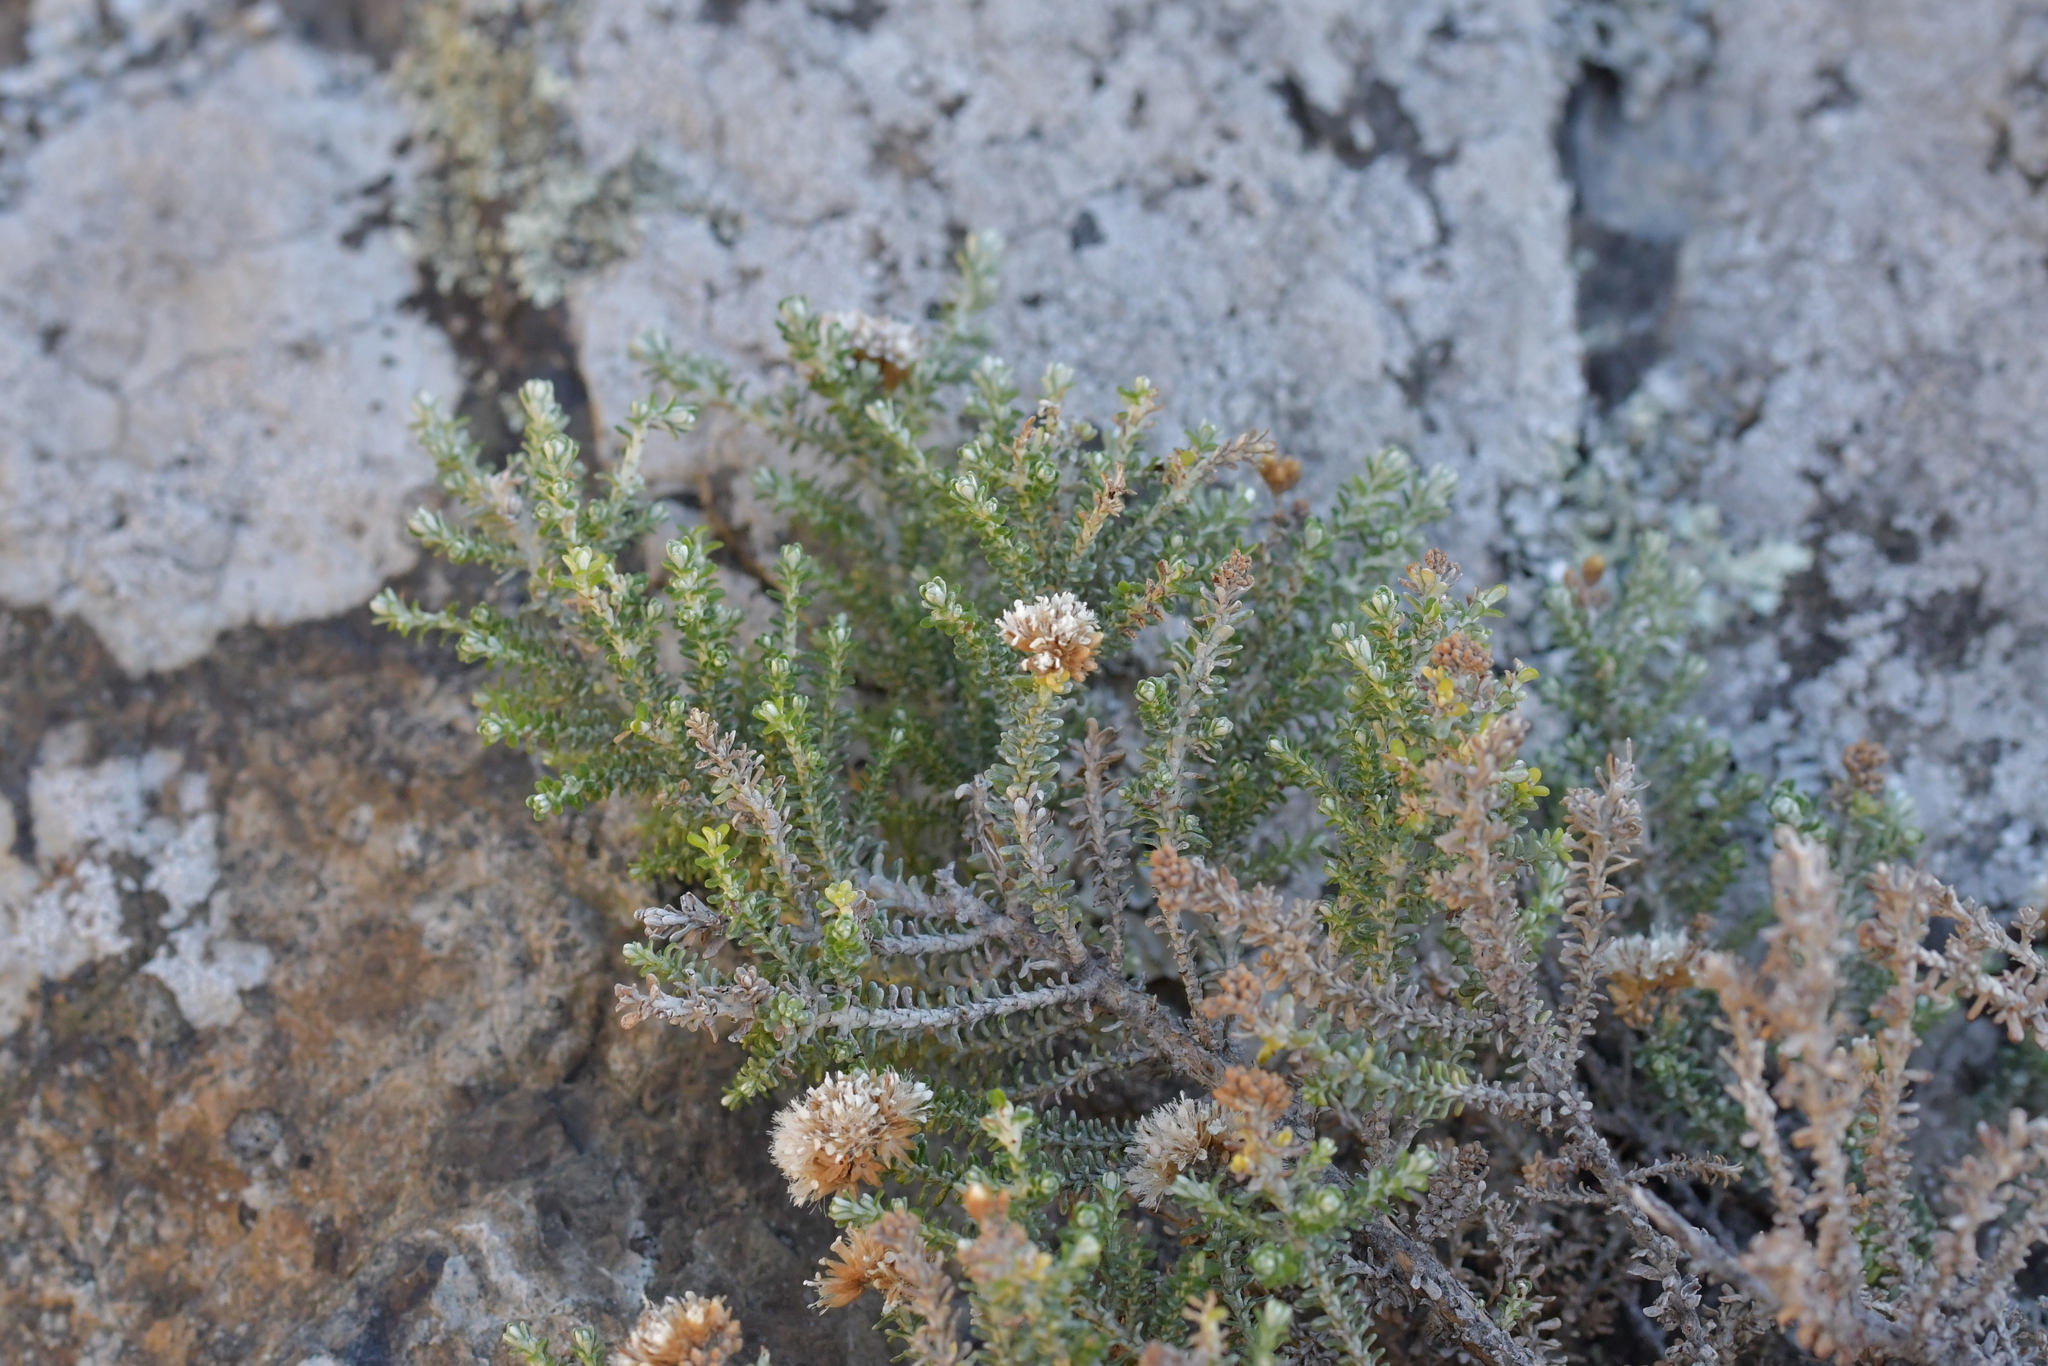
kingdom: Plantae
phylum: Tracheophyta
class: Magnoliopsida
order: Asterales
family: Asteraceae
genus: Ozothamnus
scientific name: Ozothamnus leptophyllus
